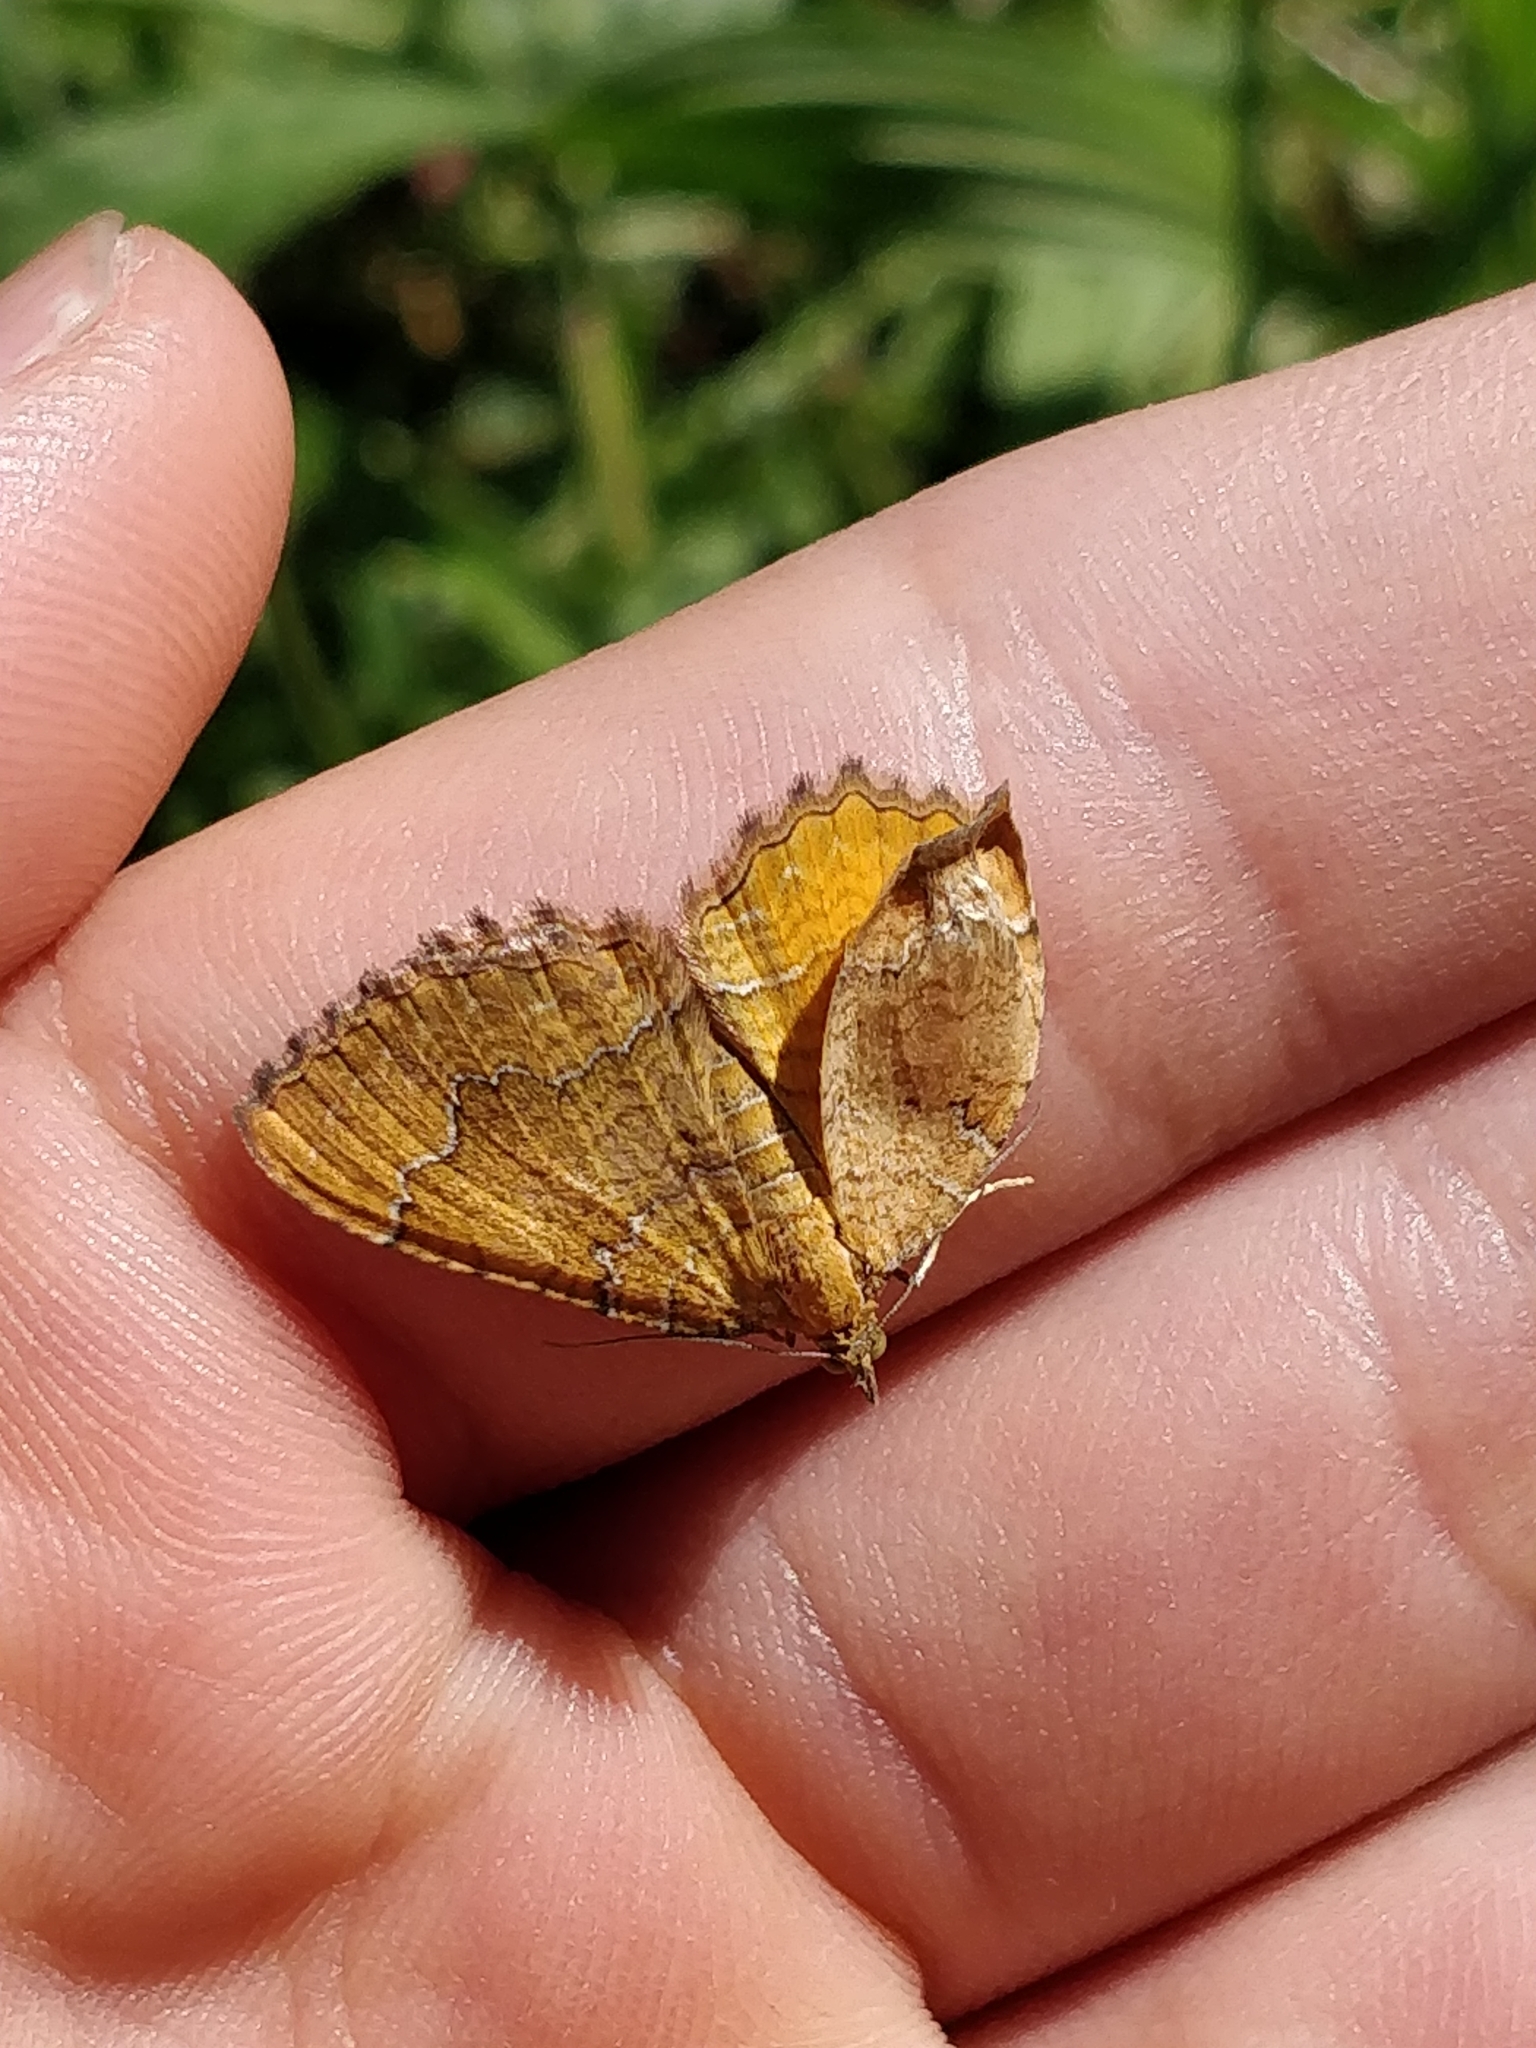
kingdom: Animalia
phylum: Arthropoda
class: Insecta
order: Lepidoptera
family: Geometridae
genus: Camptogramma
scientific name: Camptogramma bilineata
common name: Yellow shell
